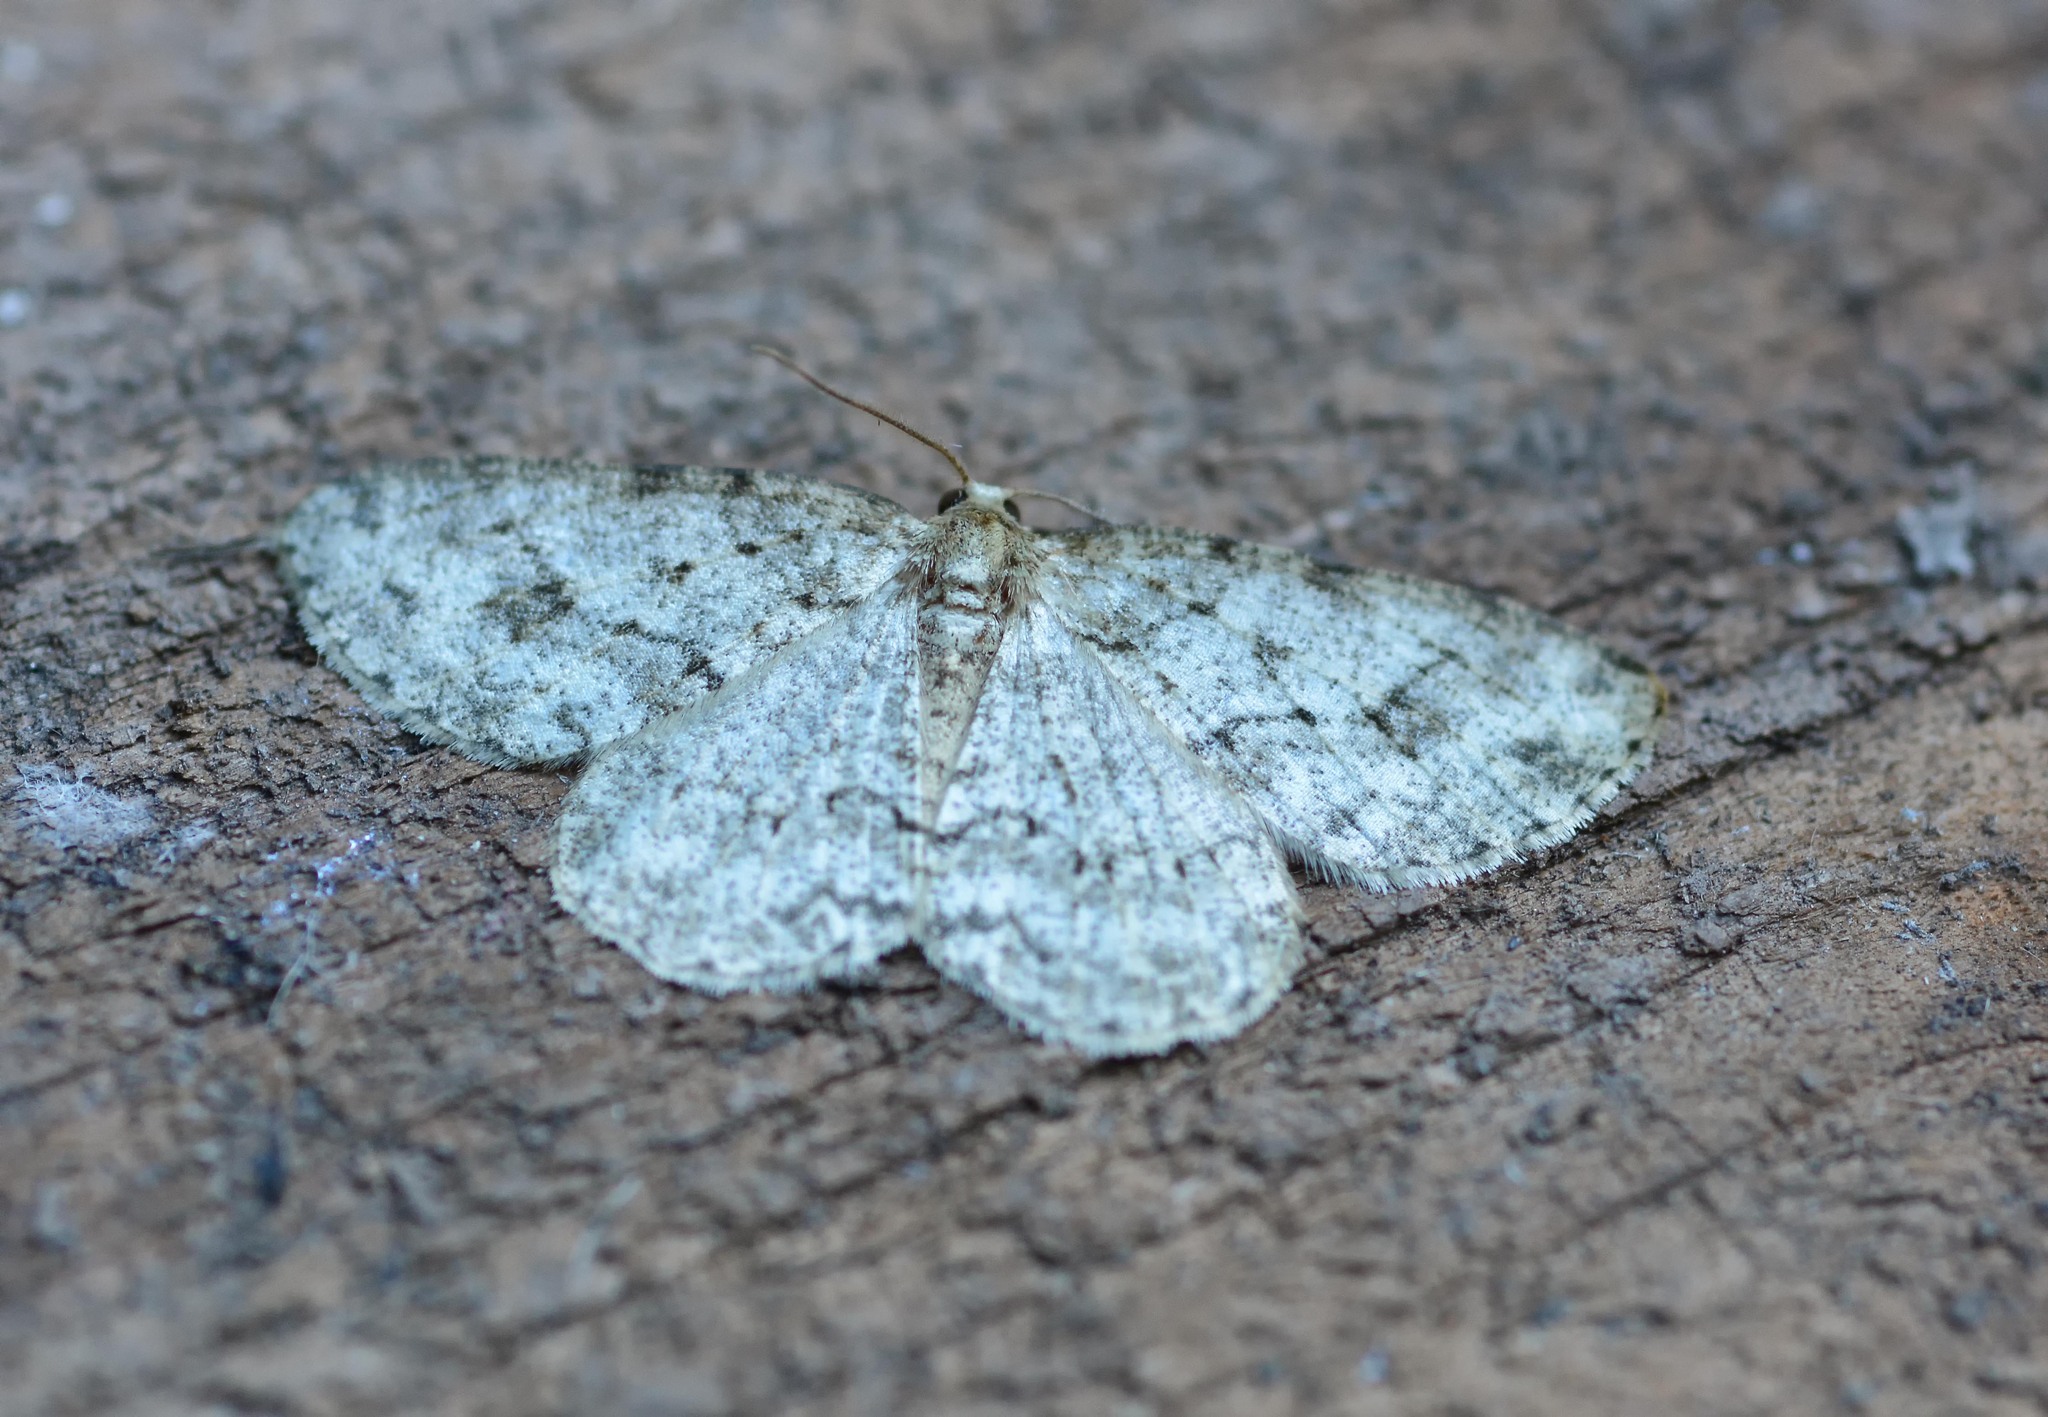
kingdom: Animalia
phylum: Arthropoda
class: Insecta
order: Lepidoptera
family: Geometridae
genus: Ectropis
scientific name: Ectropis crepuscularia
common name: Engrailed
